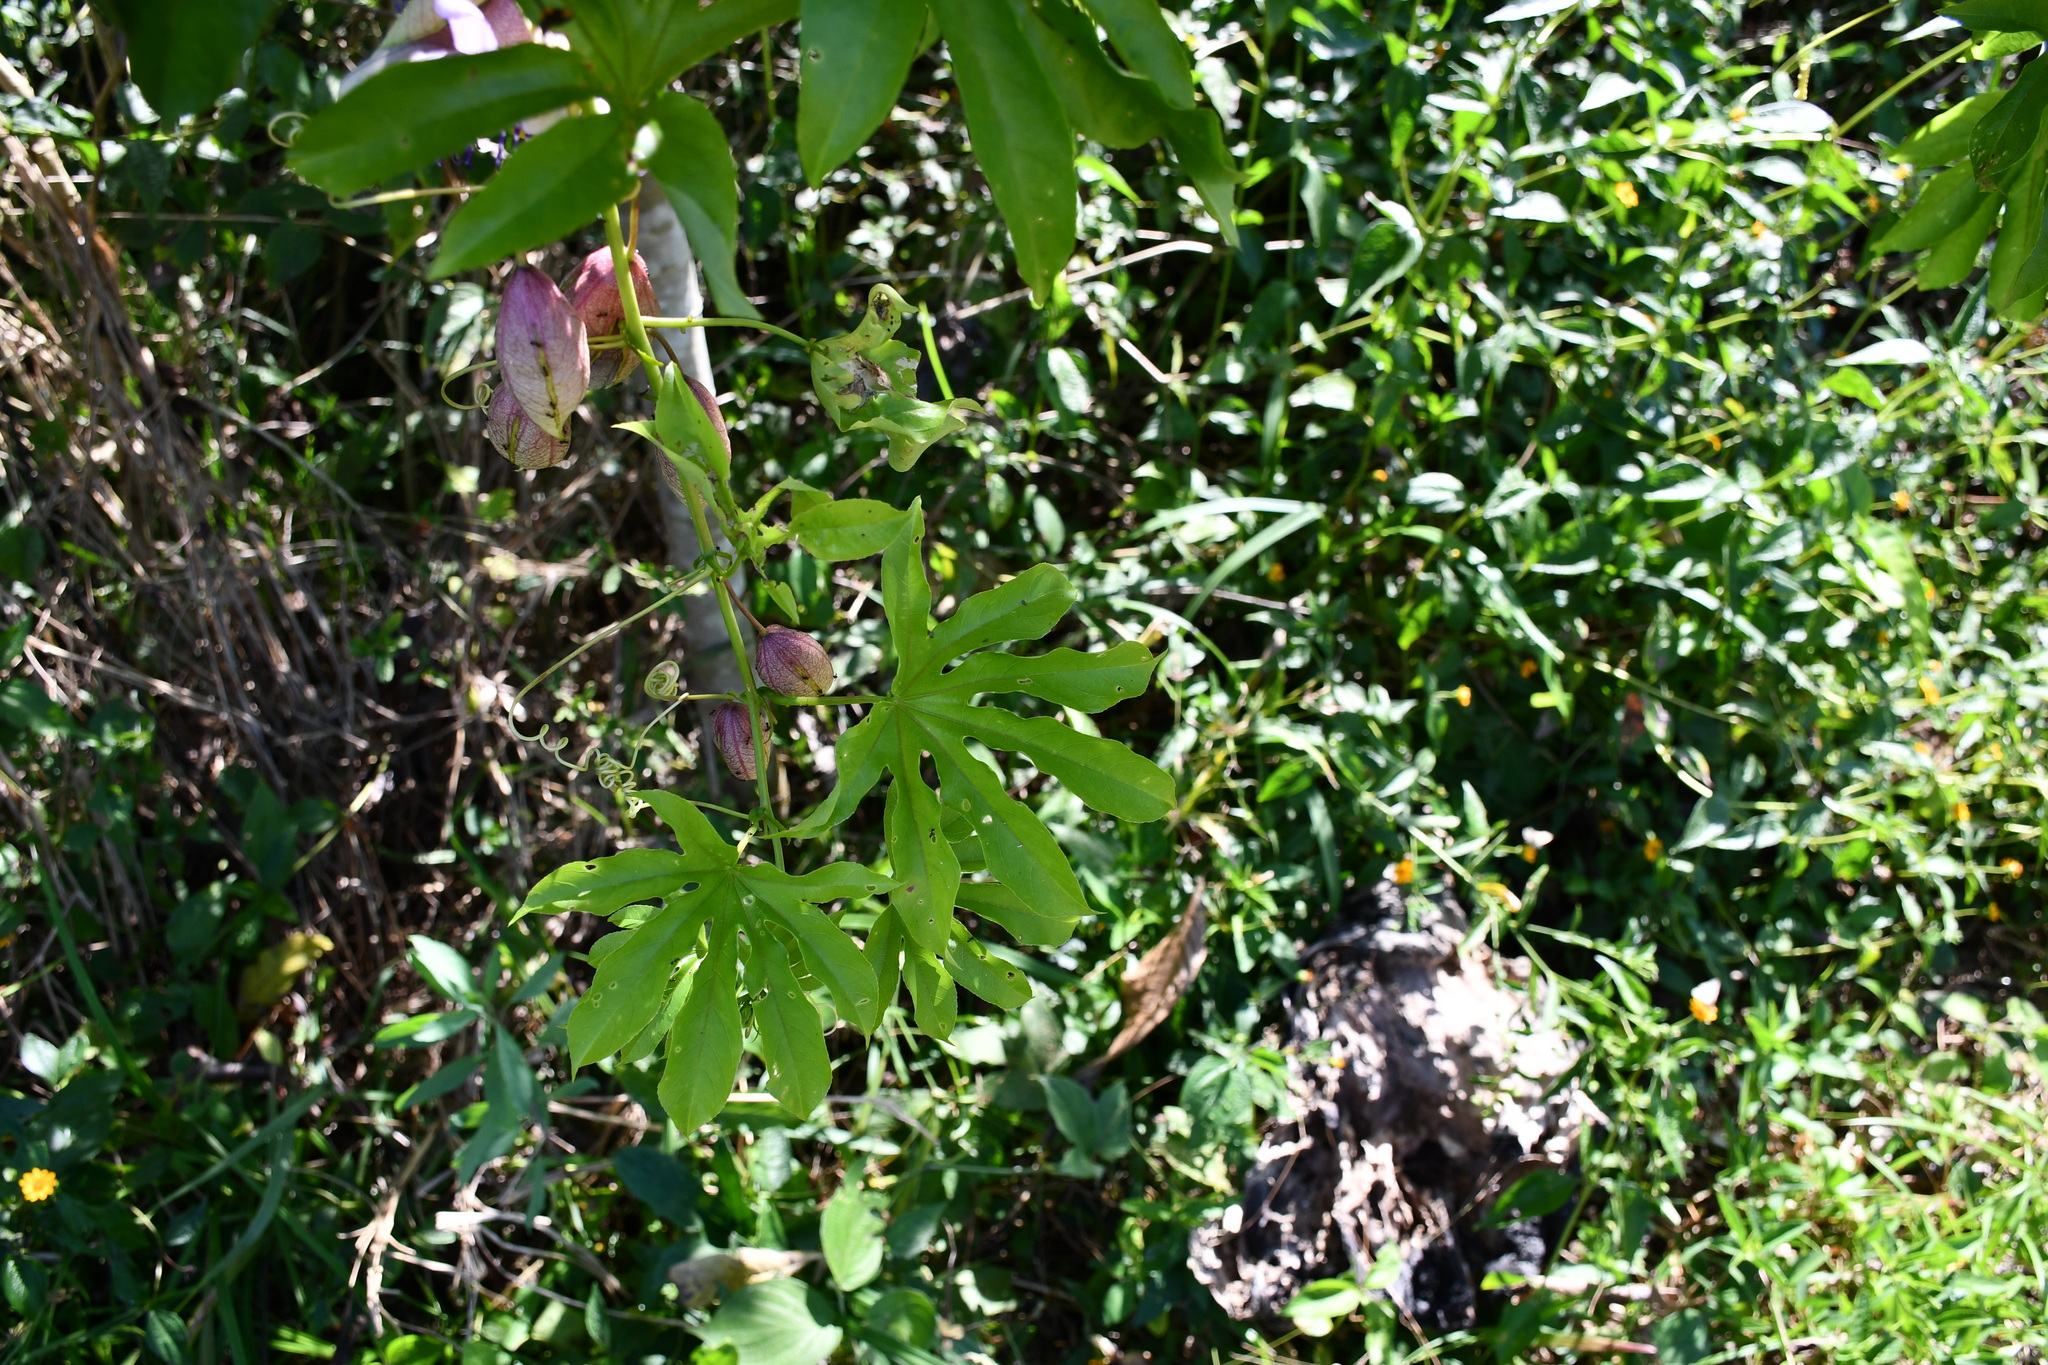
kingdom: Plantae
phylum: Tracheophyta
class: Magnoliopsida
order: Malpighiales
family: Passifloraceae
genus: Passiflora
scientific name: Passiflora serratodigitata
